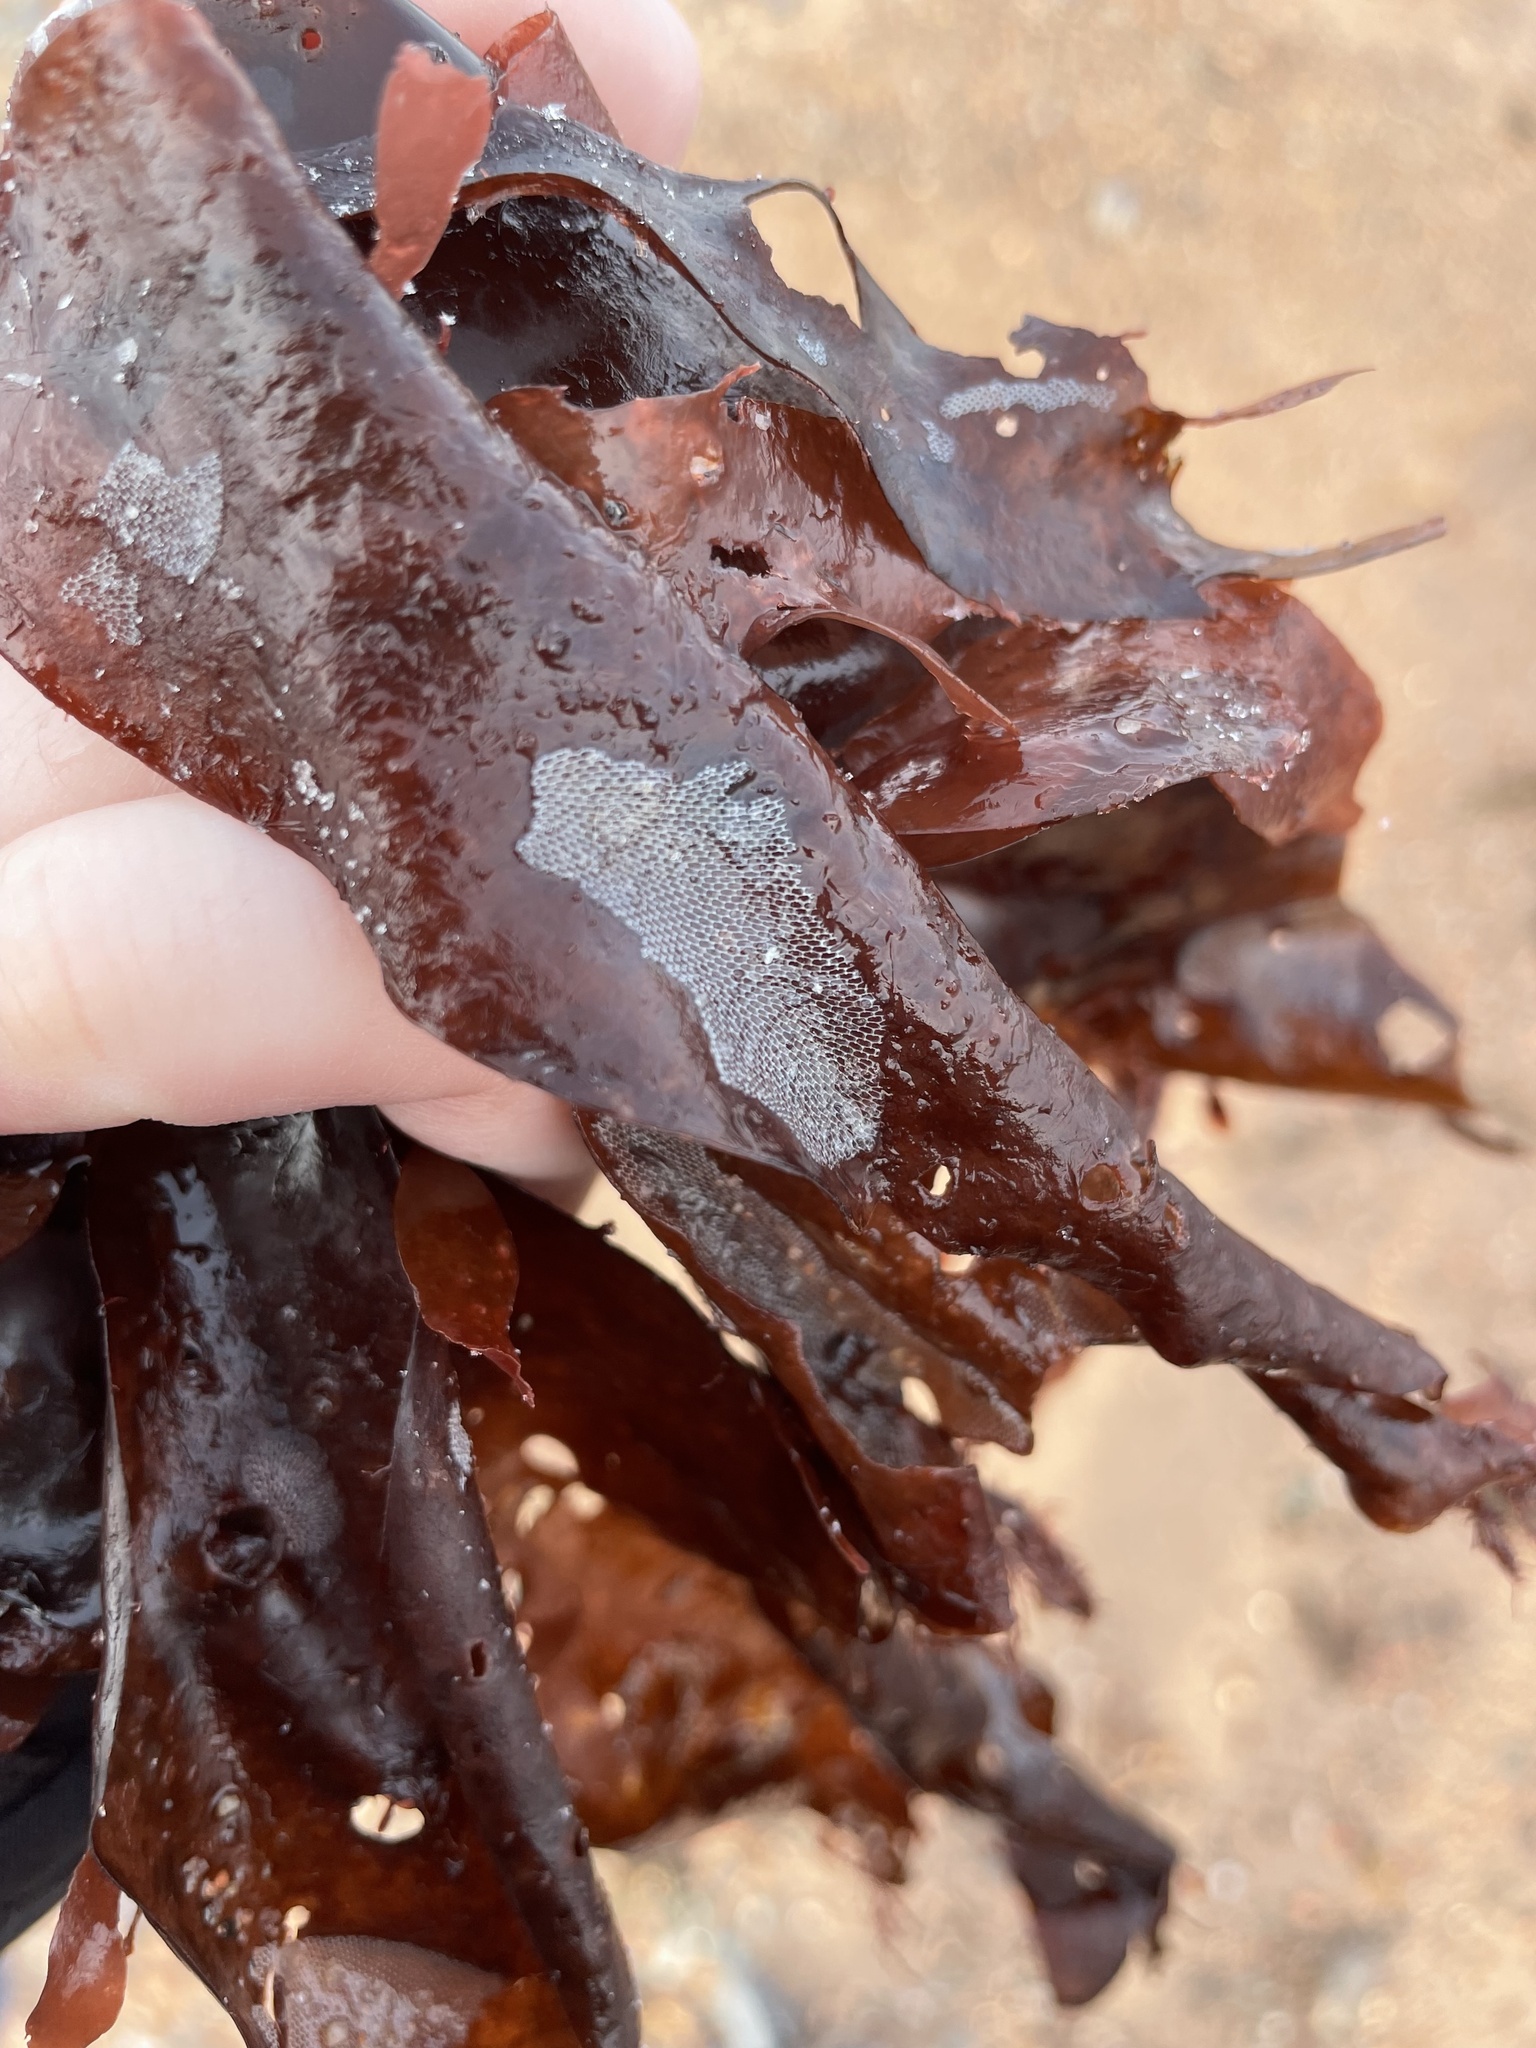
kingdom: Animalia
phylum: Bryozoa
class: Gymnolaemata
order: Cheilostomatida
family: Membraniporidae
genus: Membranipora
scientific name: Membranipora membranacea
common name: Sea mat
